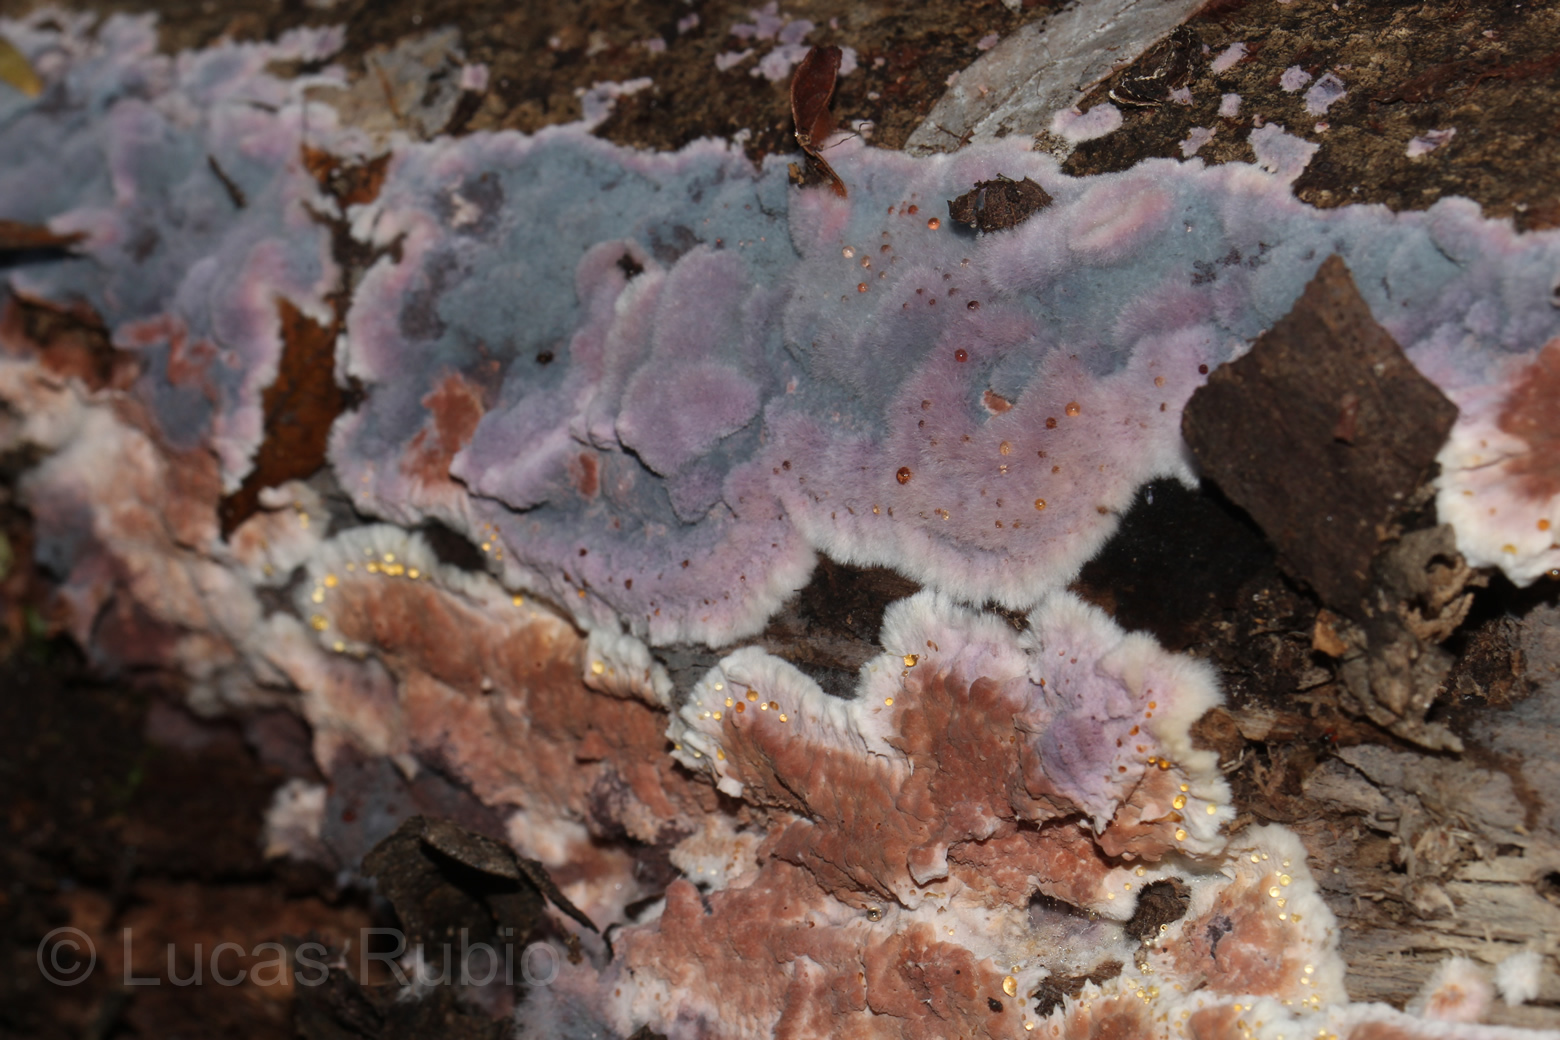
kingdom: Fungi
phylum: Basidiomycota
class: Agaricomycetes
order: Corticiales
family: Punctulariaceae
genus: Punctularia
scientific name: Punctularia atropurpurascens
